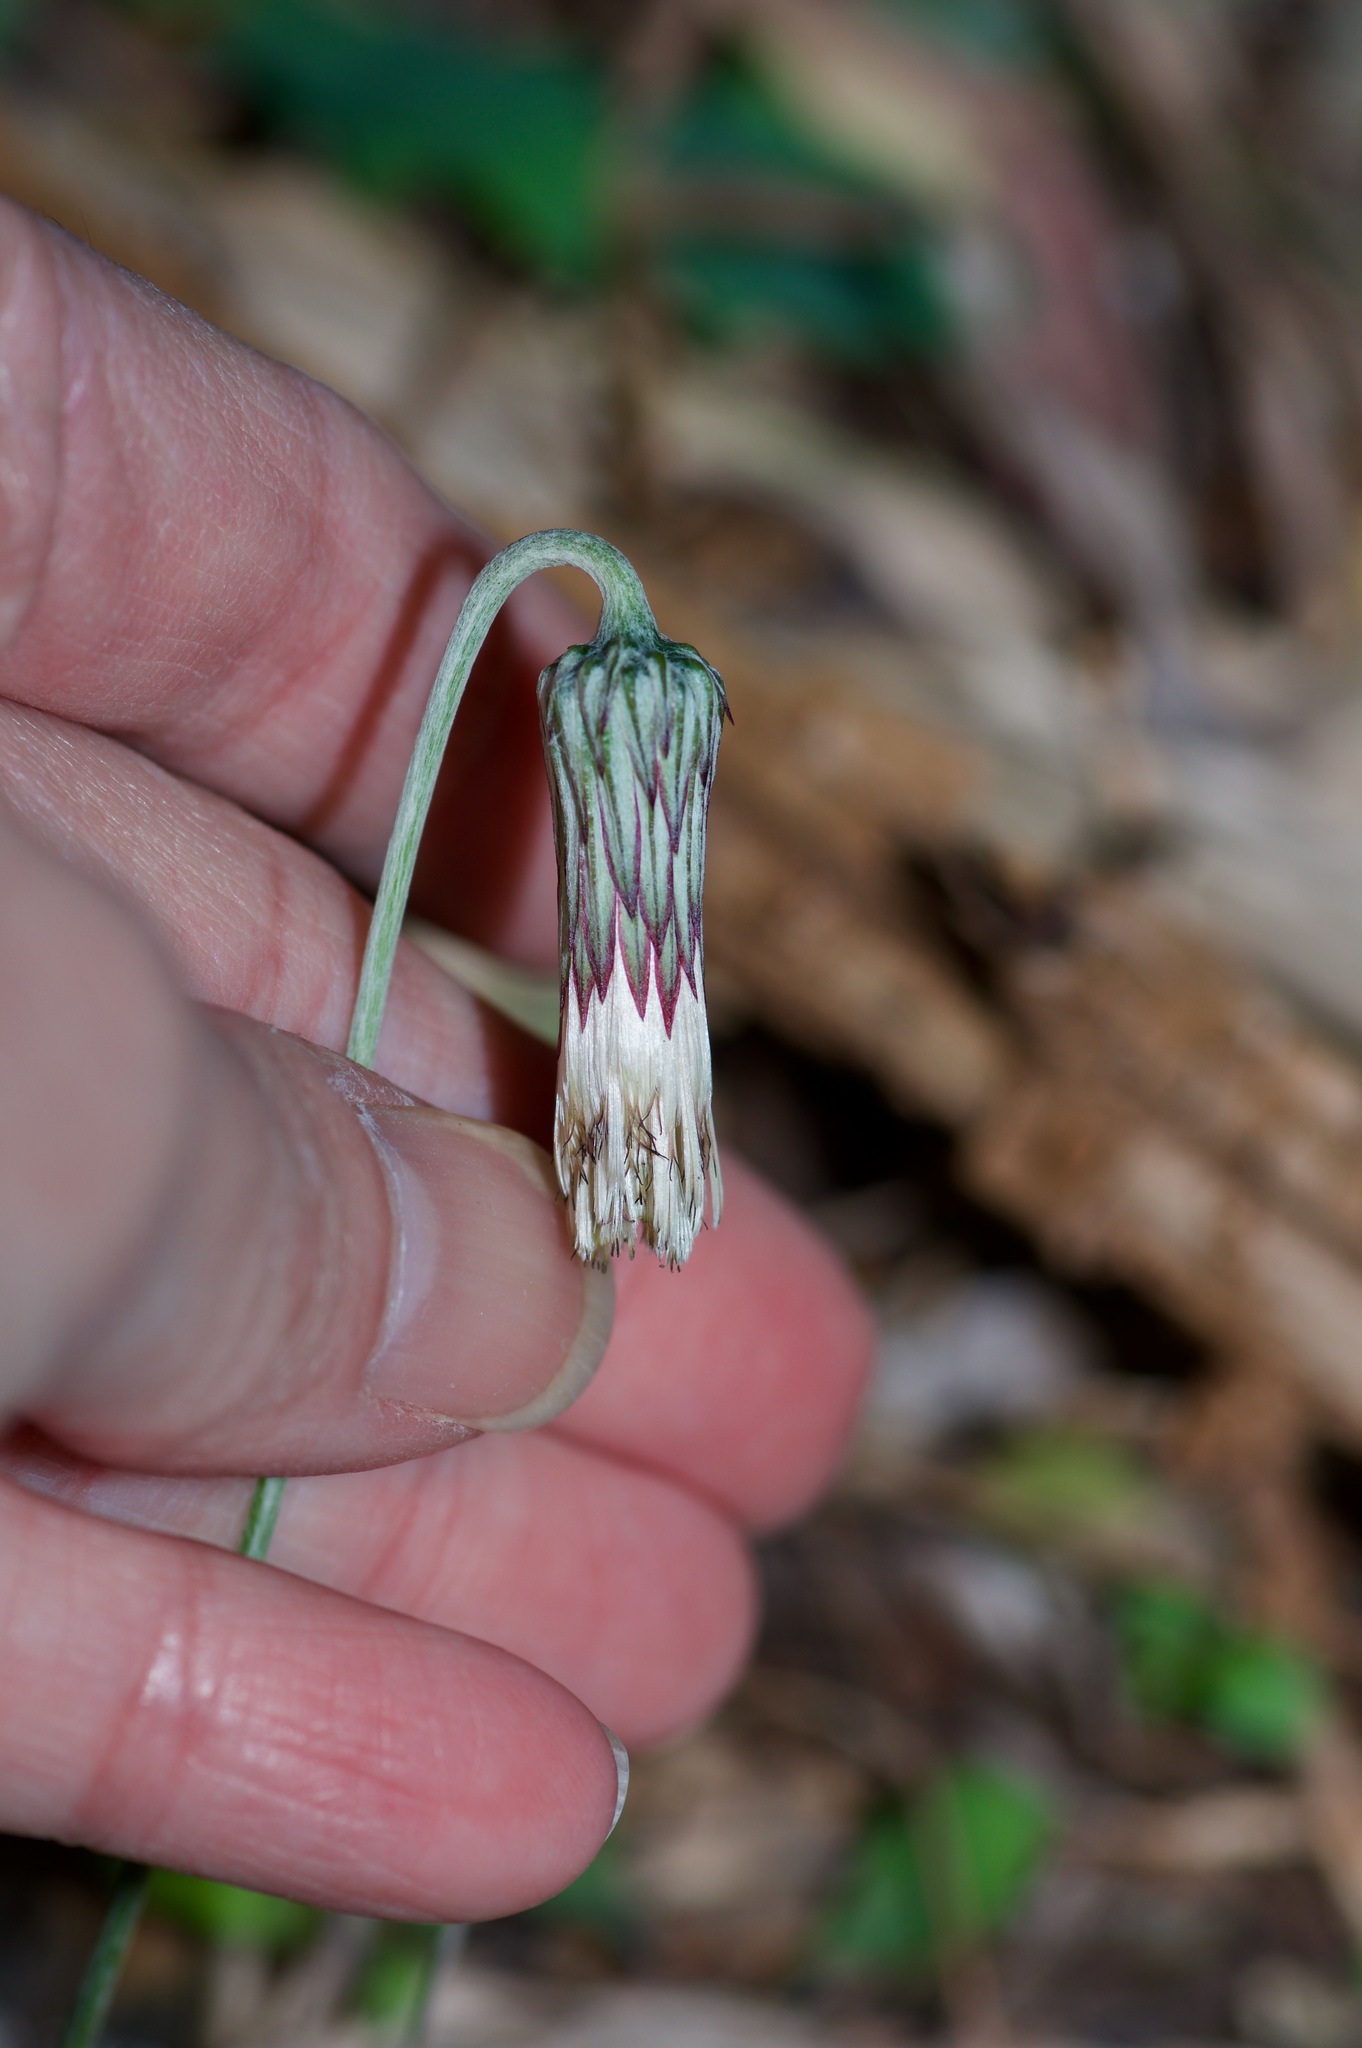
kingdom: Plantae
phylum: Tracheophyta
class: Magnoliopsida
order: Asterales
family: Asteraceae
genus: Chaptalia
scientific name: Chaptalia texana
